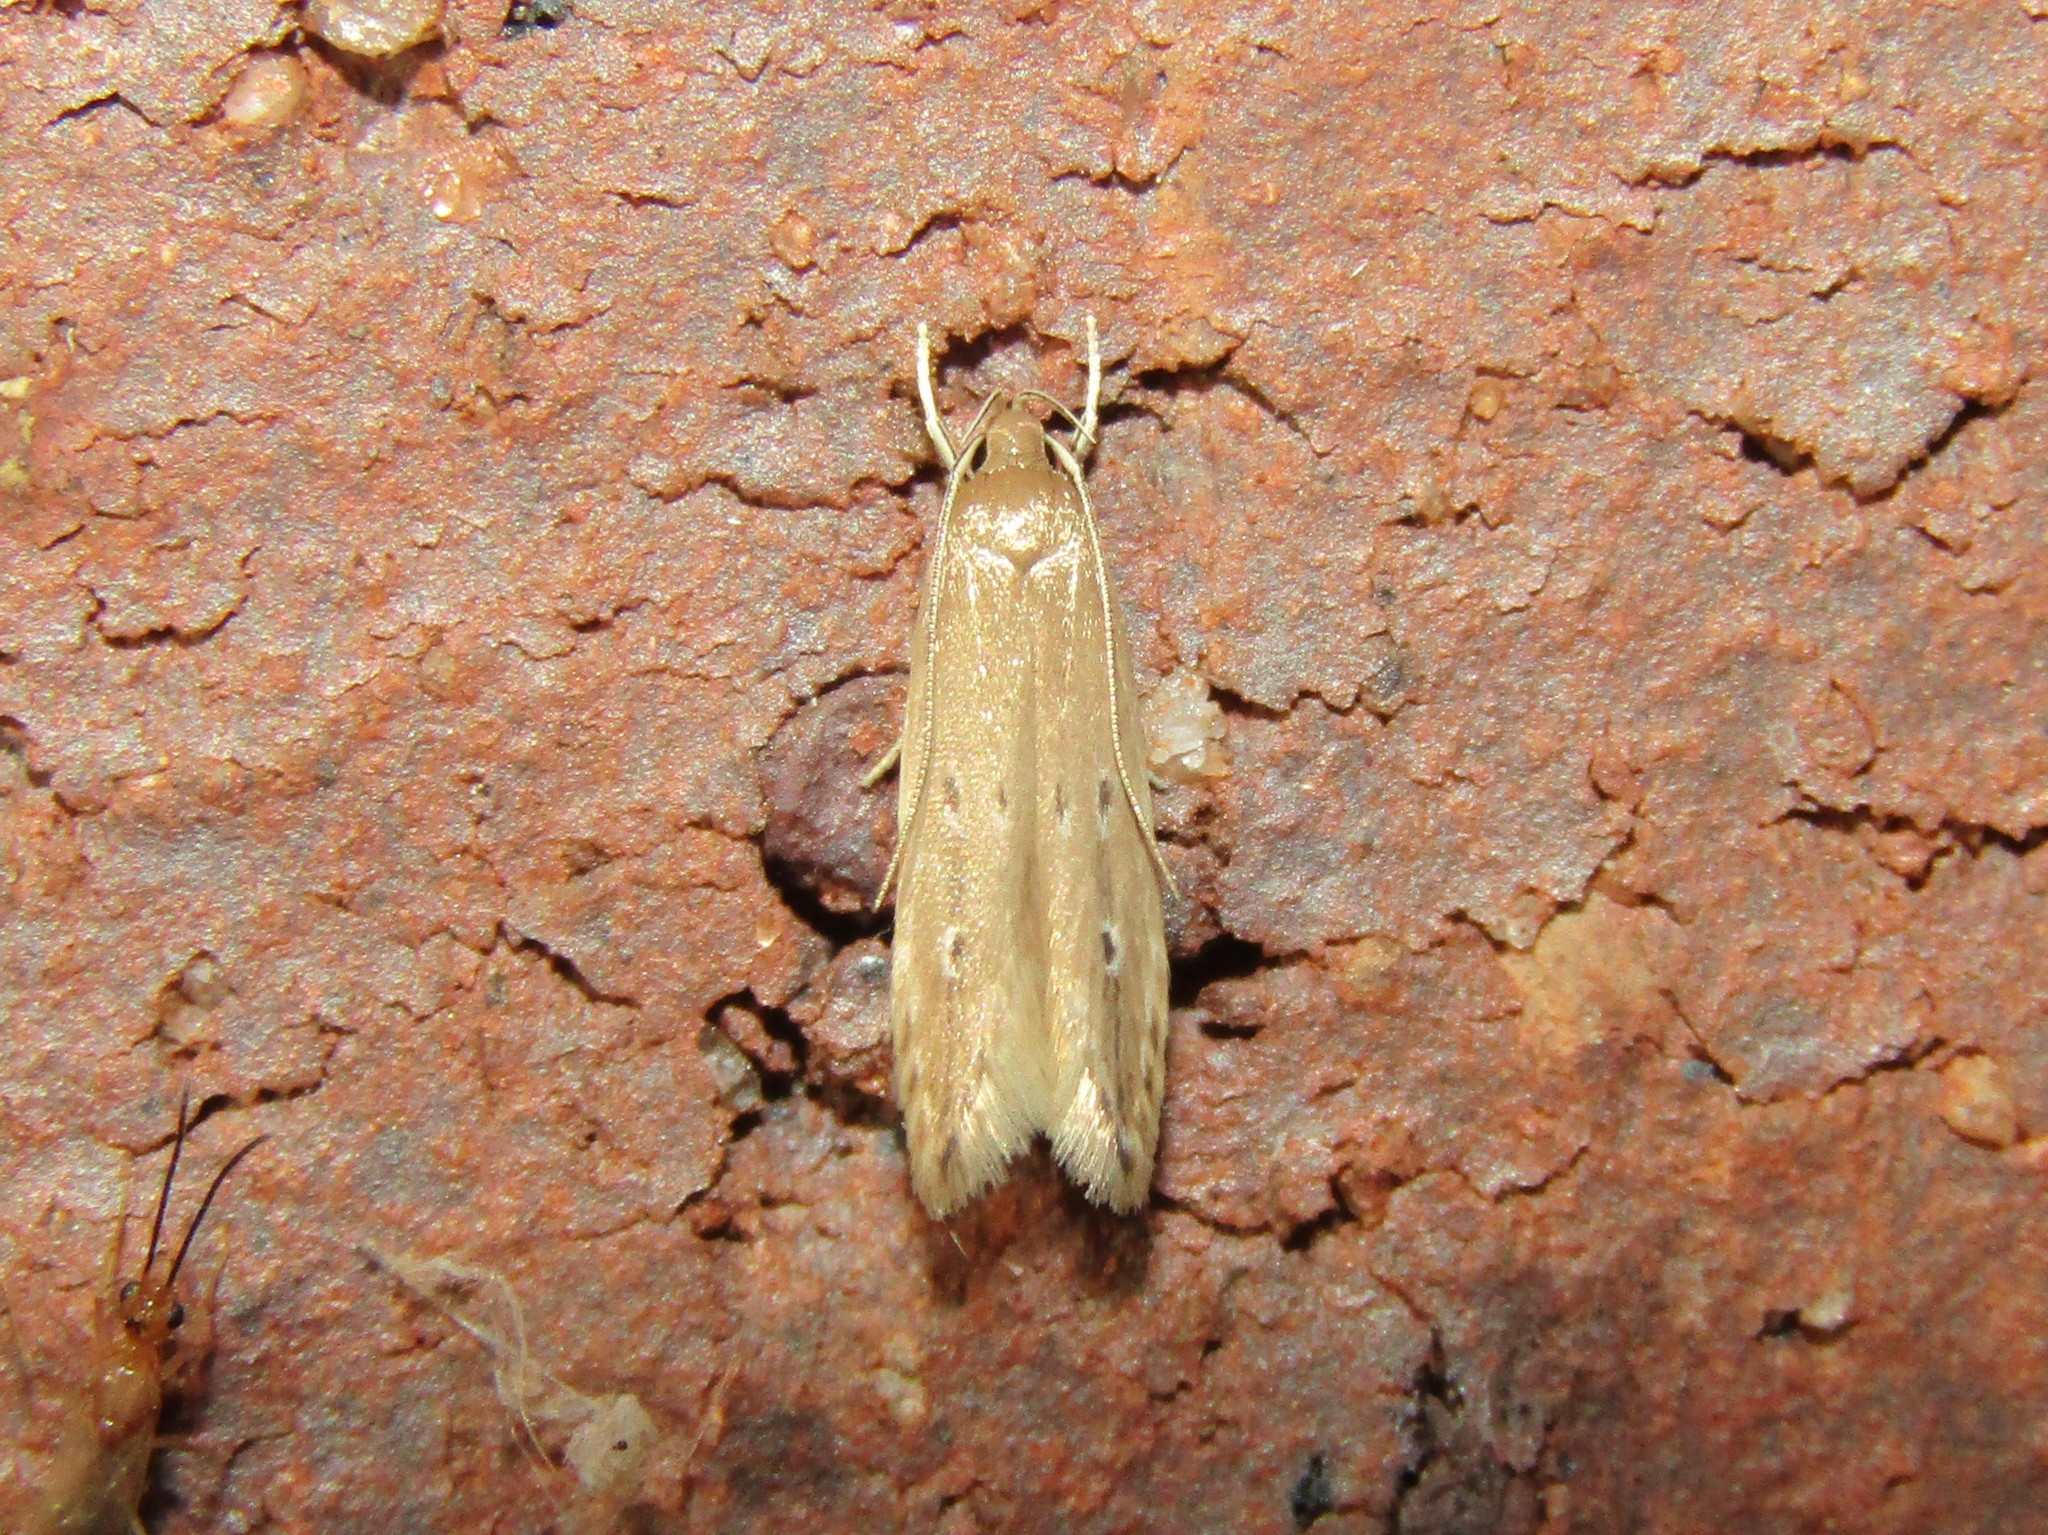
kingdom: Animalia
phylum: Arthropoda
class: Insecta
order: Lepidoptera
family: Cosmopterigidae
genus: Limnaecia
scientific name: Limnaecia phragmitella
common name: Bulrush cosmet
